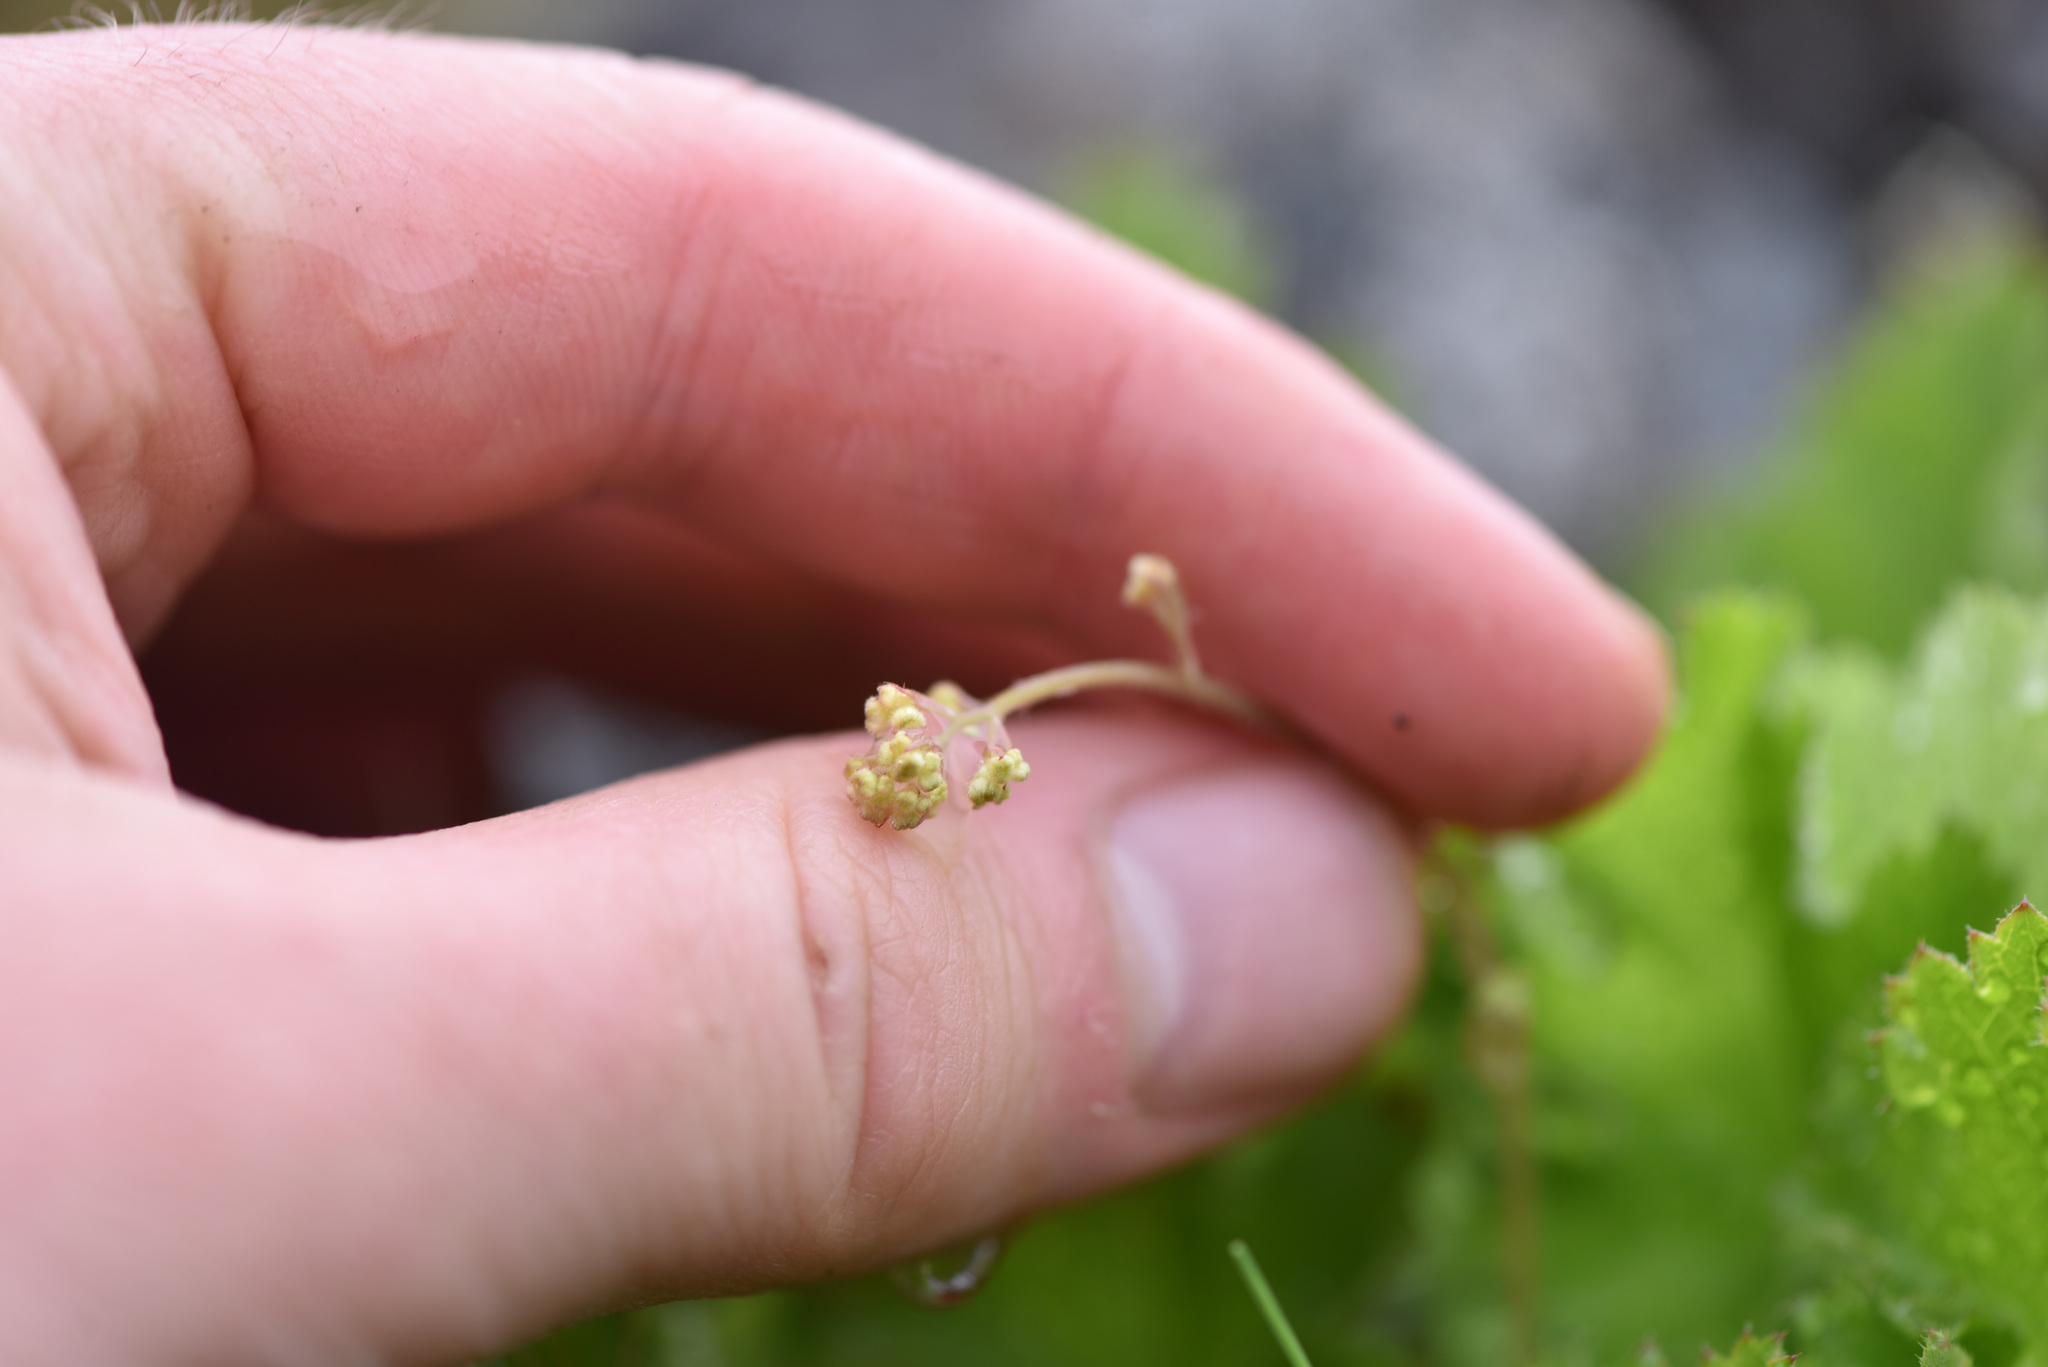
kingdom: Plantae
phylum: Tracheophyta
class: Magnoliopsida
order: Saxifragales
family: Saxifragaceae
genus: Heuchera
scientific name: Heuchera micrantha
